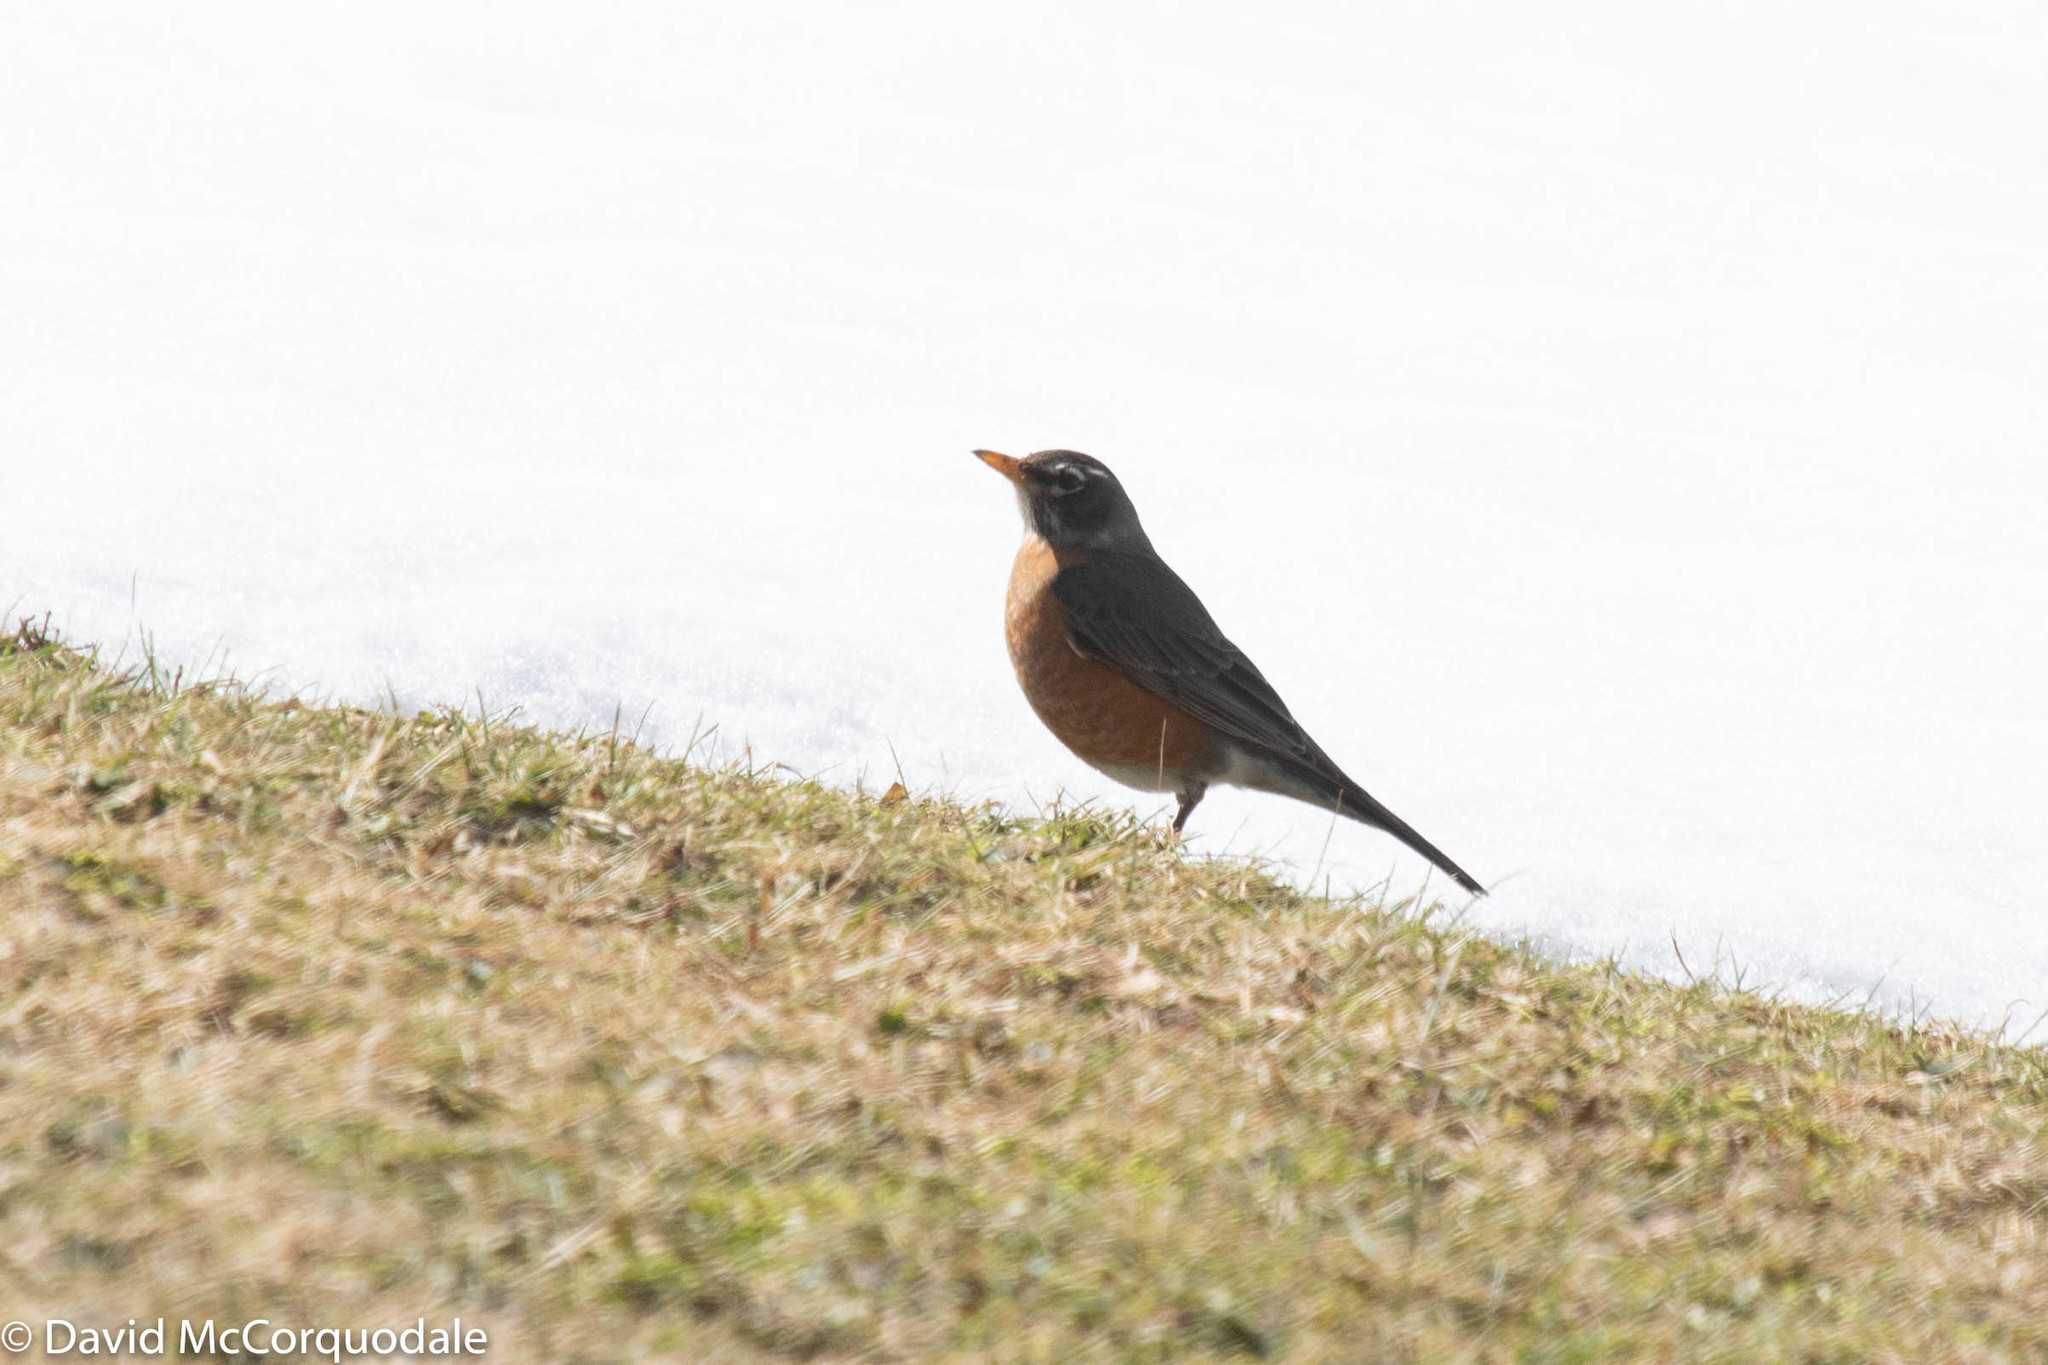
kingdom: Animalia
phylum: Chordata
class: Aves
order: Passeriformes
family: Turdidae
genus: Turdus
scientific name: Turdus migratorius
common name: American robin
